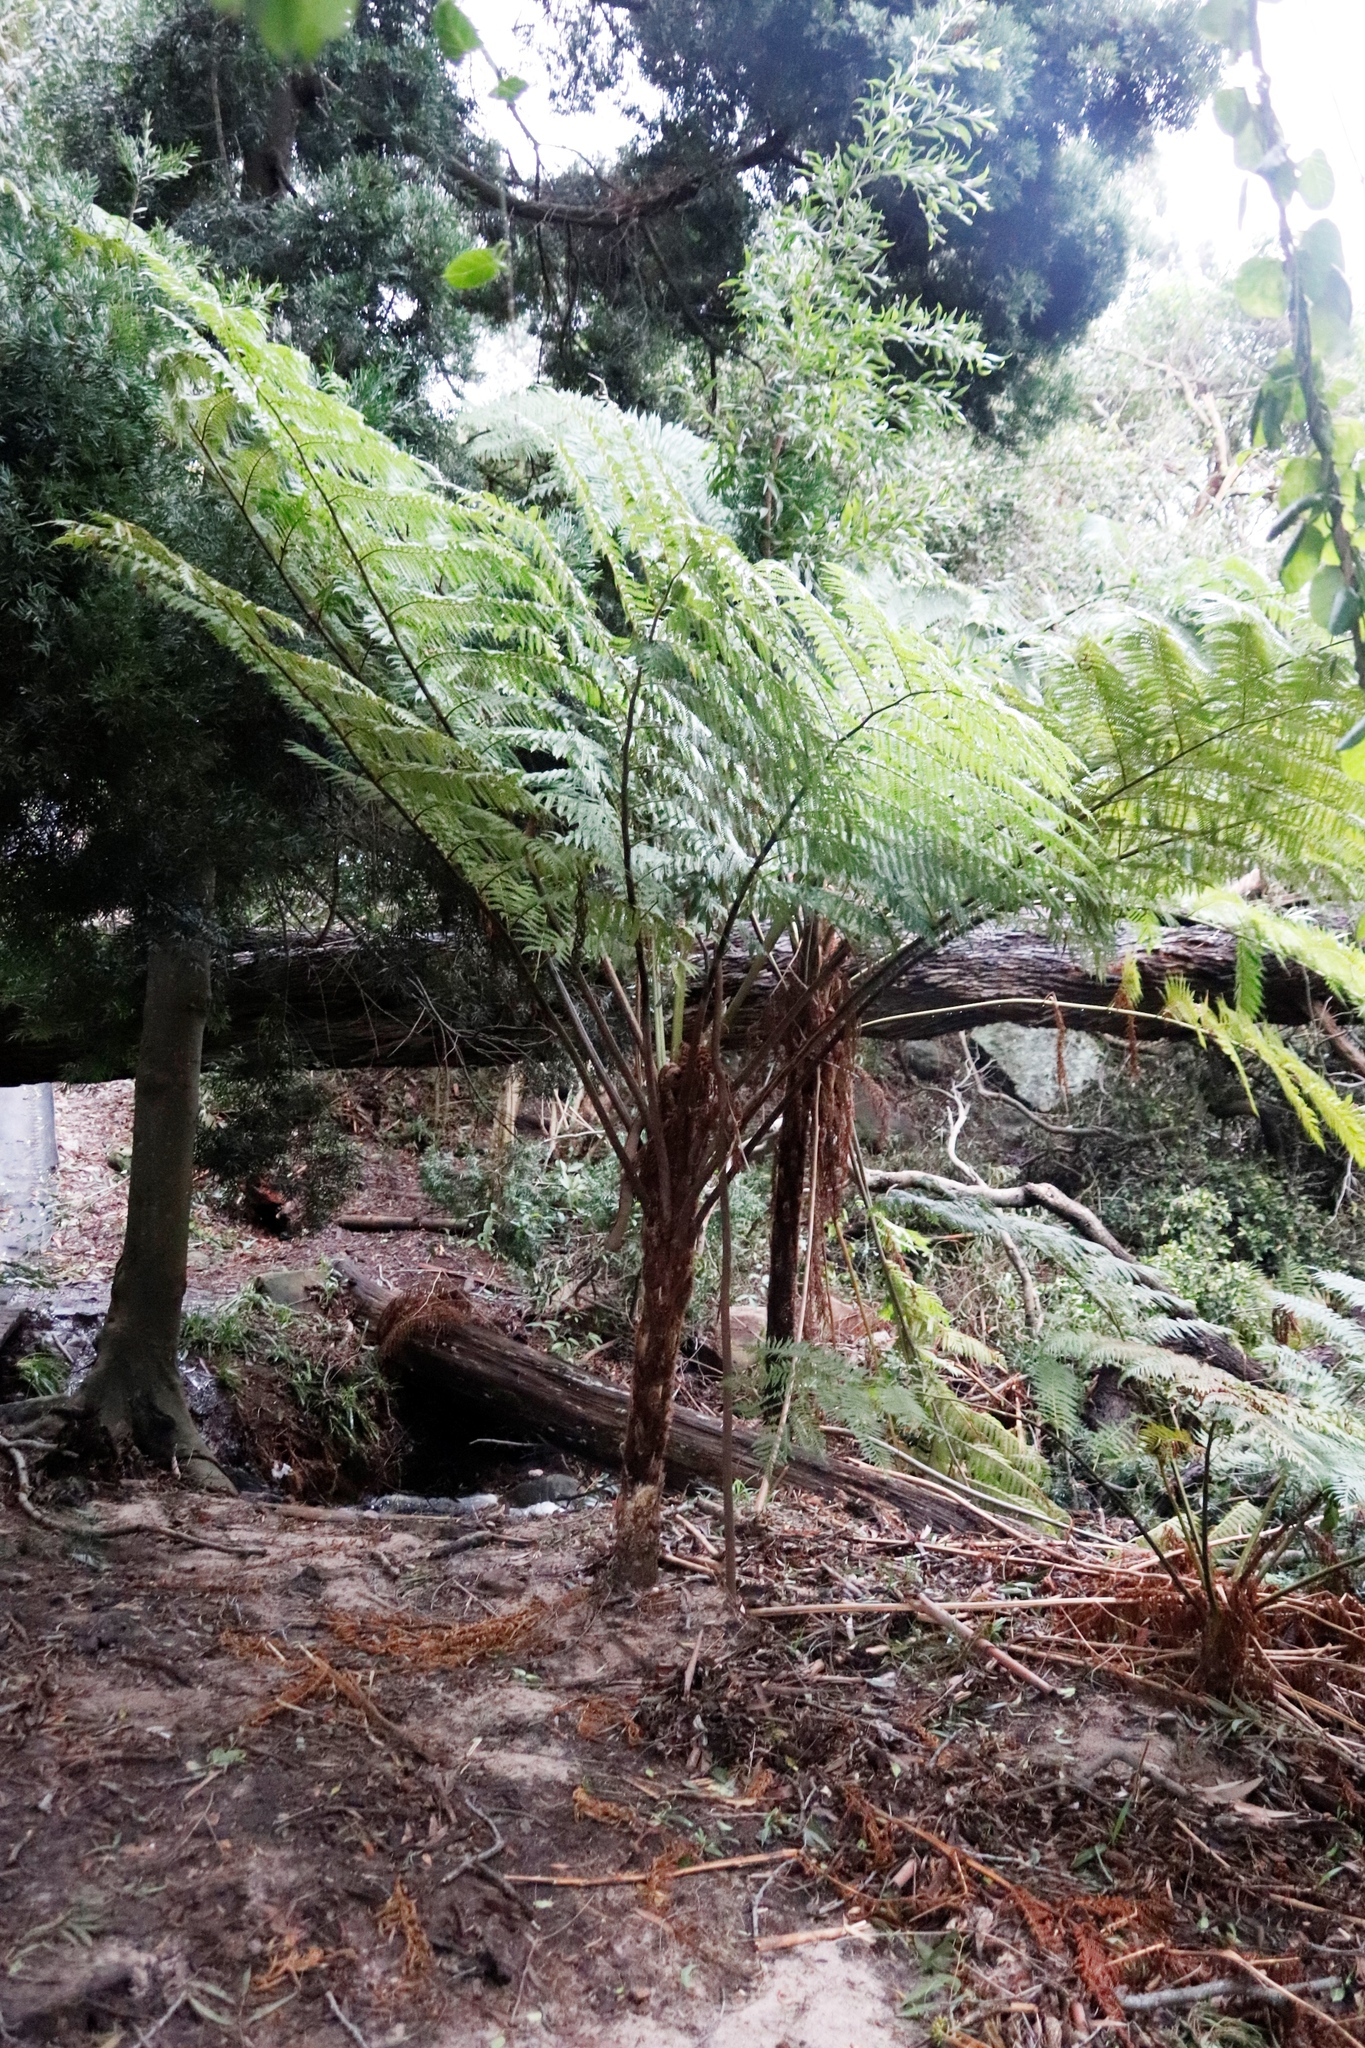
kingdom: Plantae
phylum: Tracheophyta
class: Polypodiopsida
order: Cyatheales
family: Cyatheaceae
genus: Sphaeropteris
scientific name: Sphaeropteris cooperi
